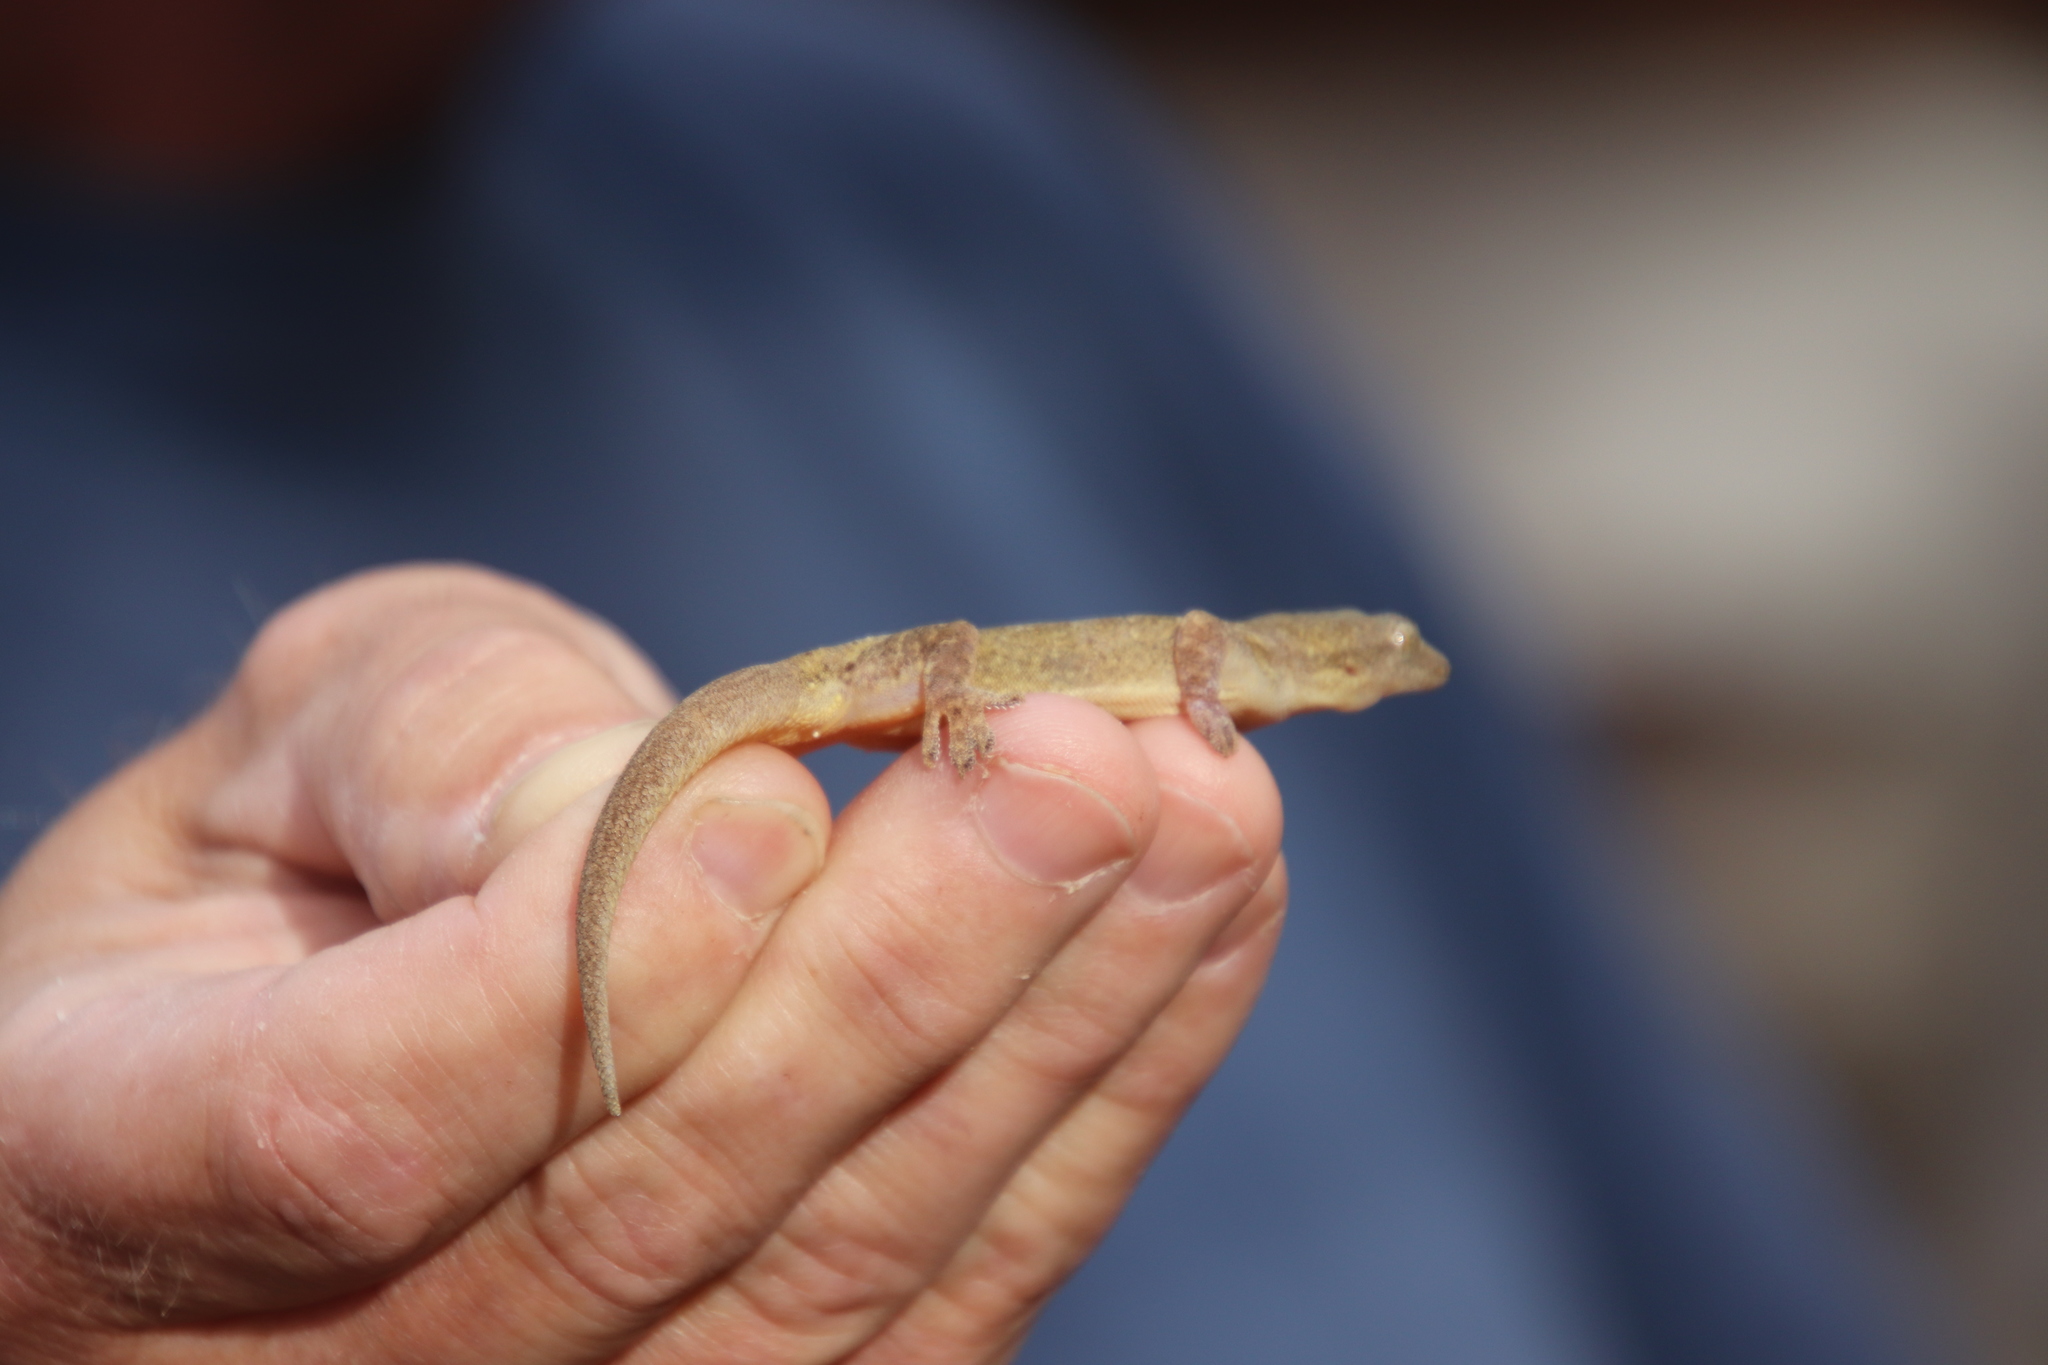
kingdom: Animalia
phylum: Chordata
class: Squamata
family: Gekkonidae
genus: Hemidactylus
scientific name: Hemidactylus frenatus
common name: Common house gecko
